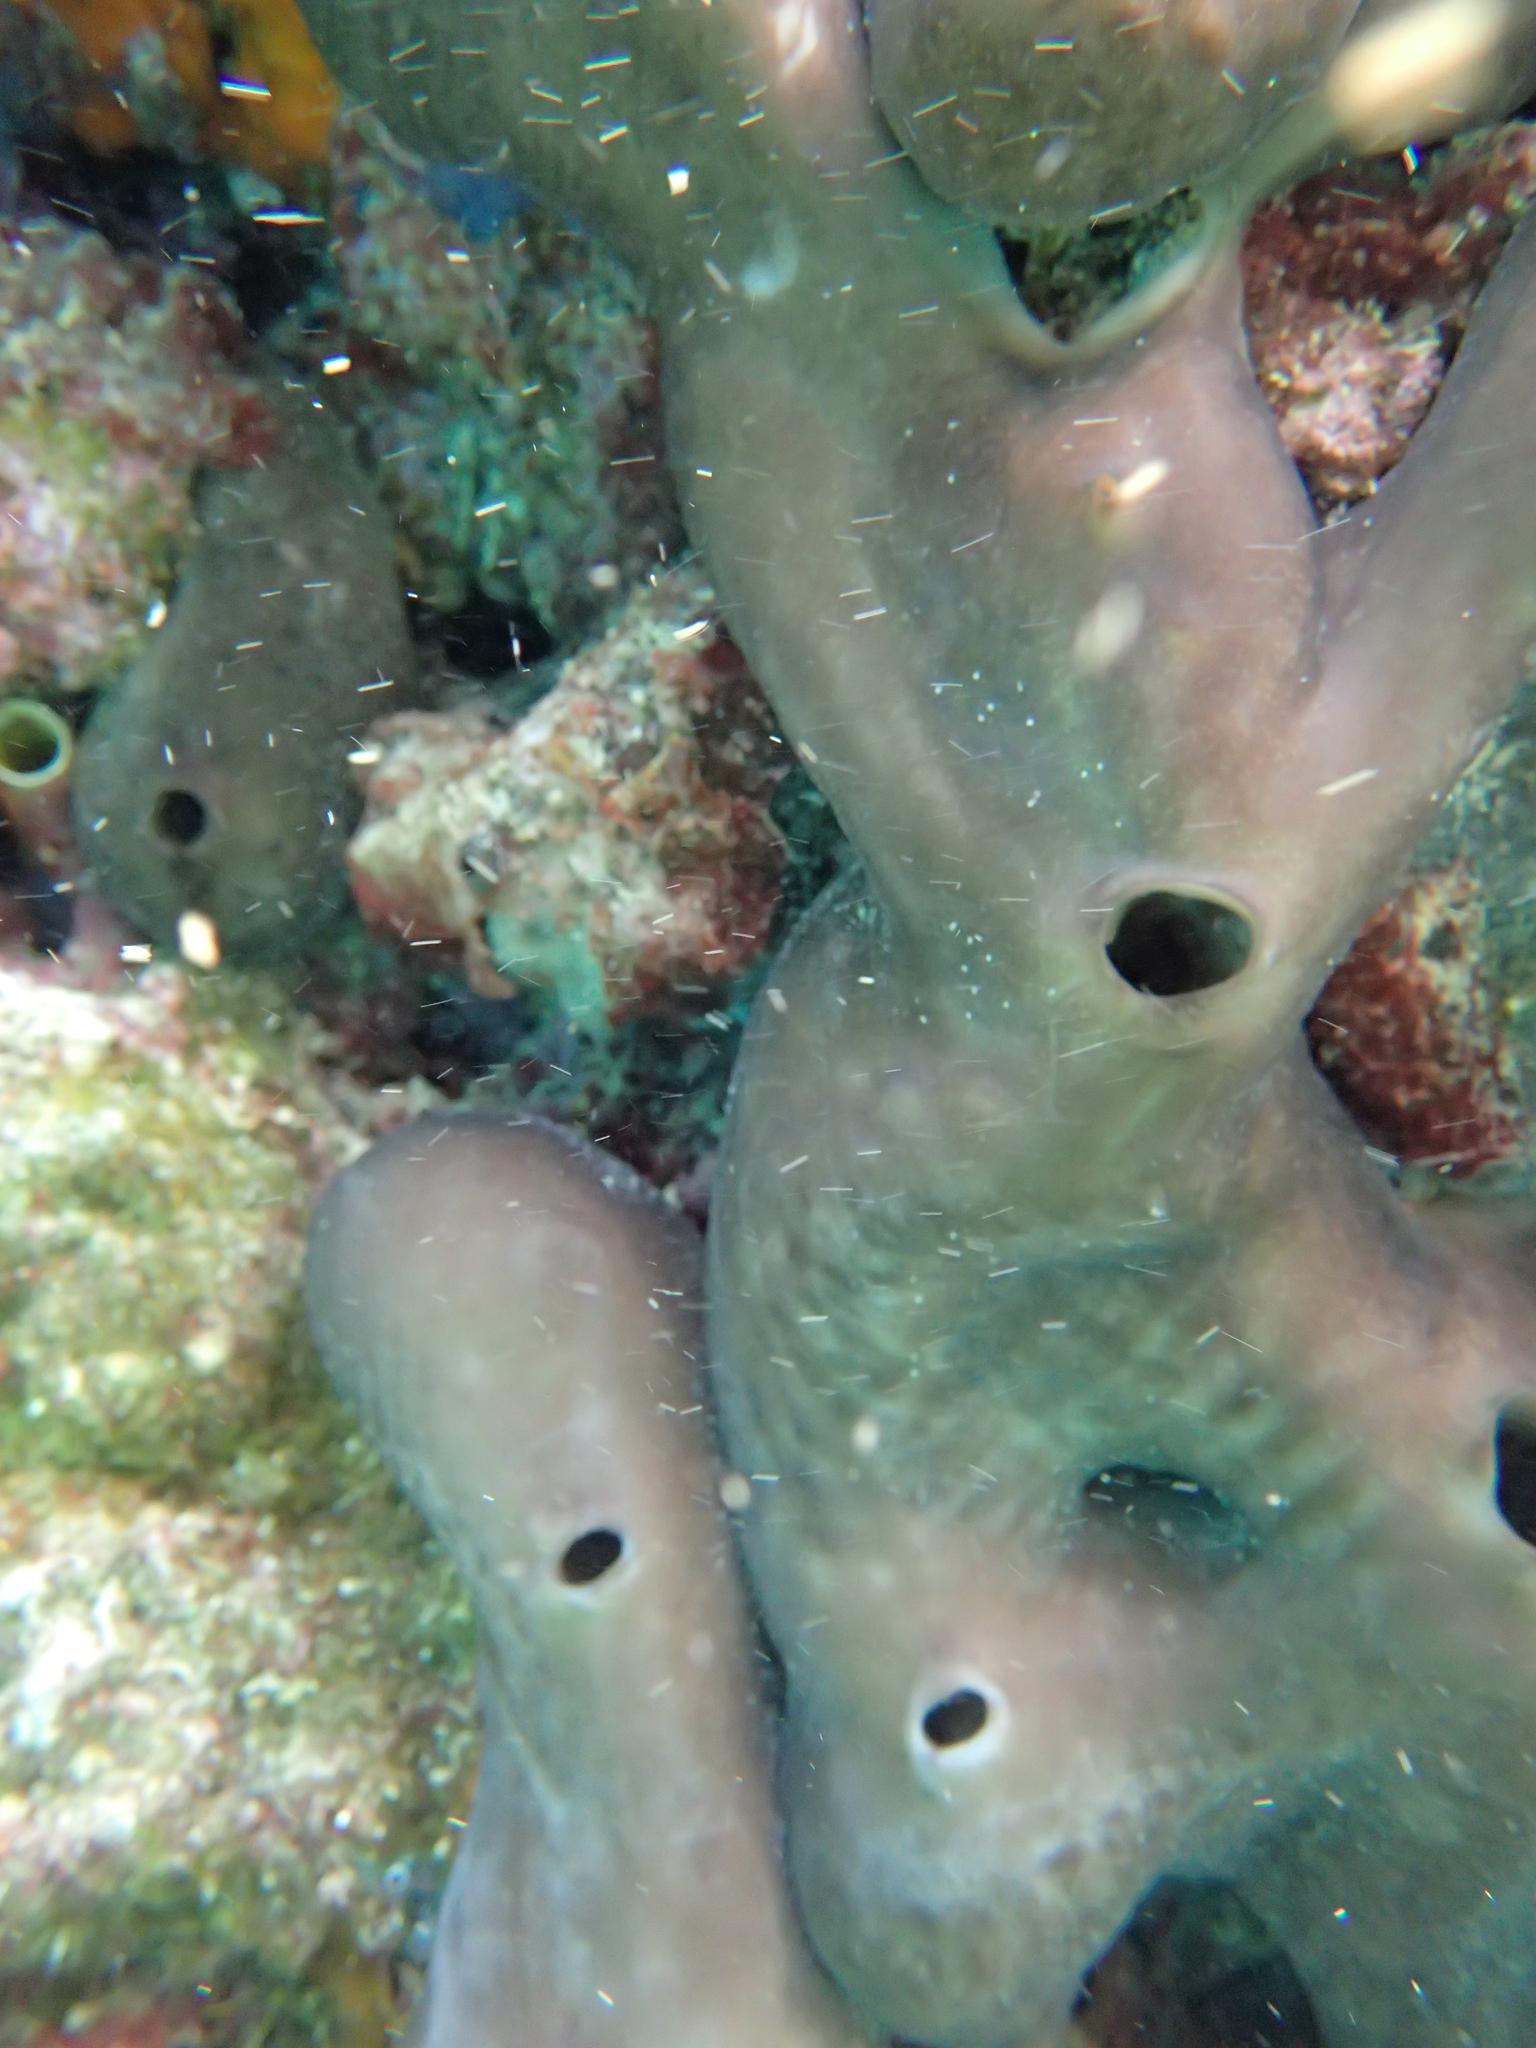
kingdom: Animalia
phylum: Porifera
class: Demospongiae
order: Chondrosiida
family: Chondrosiidae
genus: Chondrosia
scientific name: Chondrosia reniformis
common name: Chicken liver sponge
